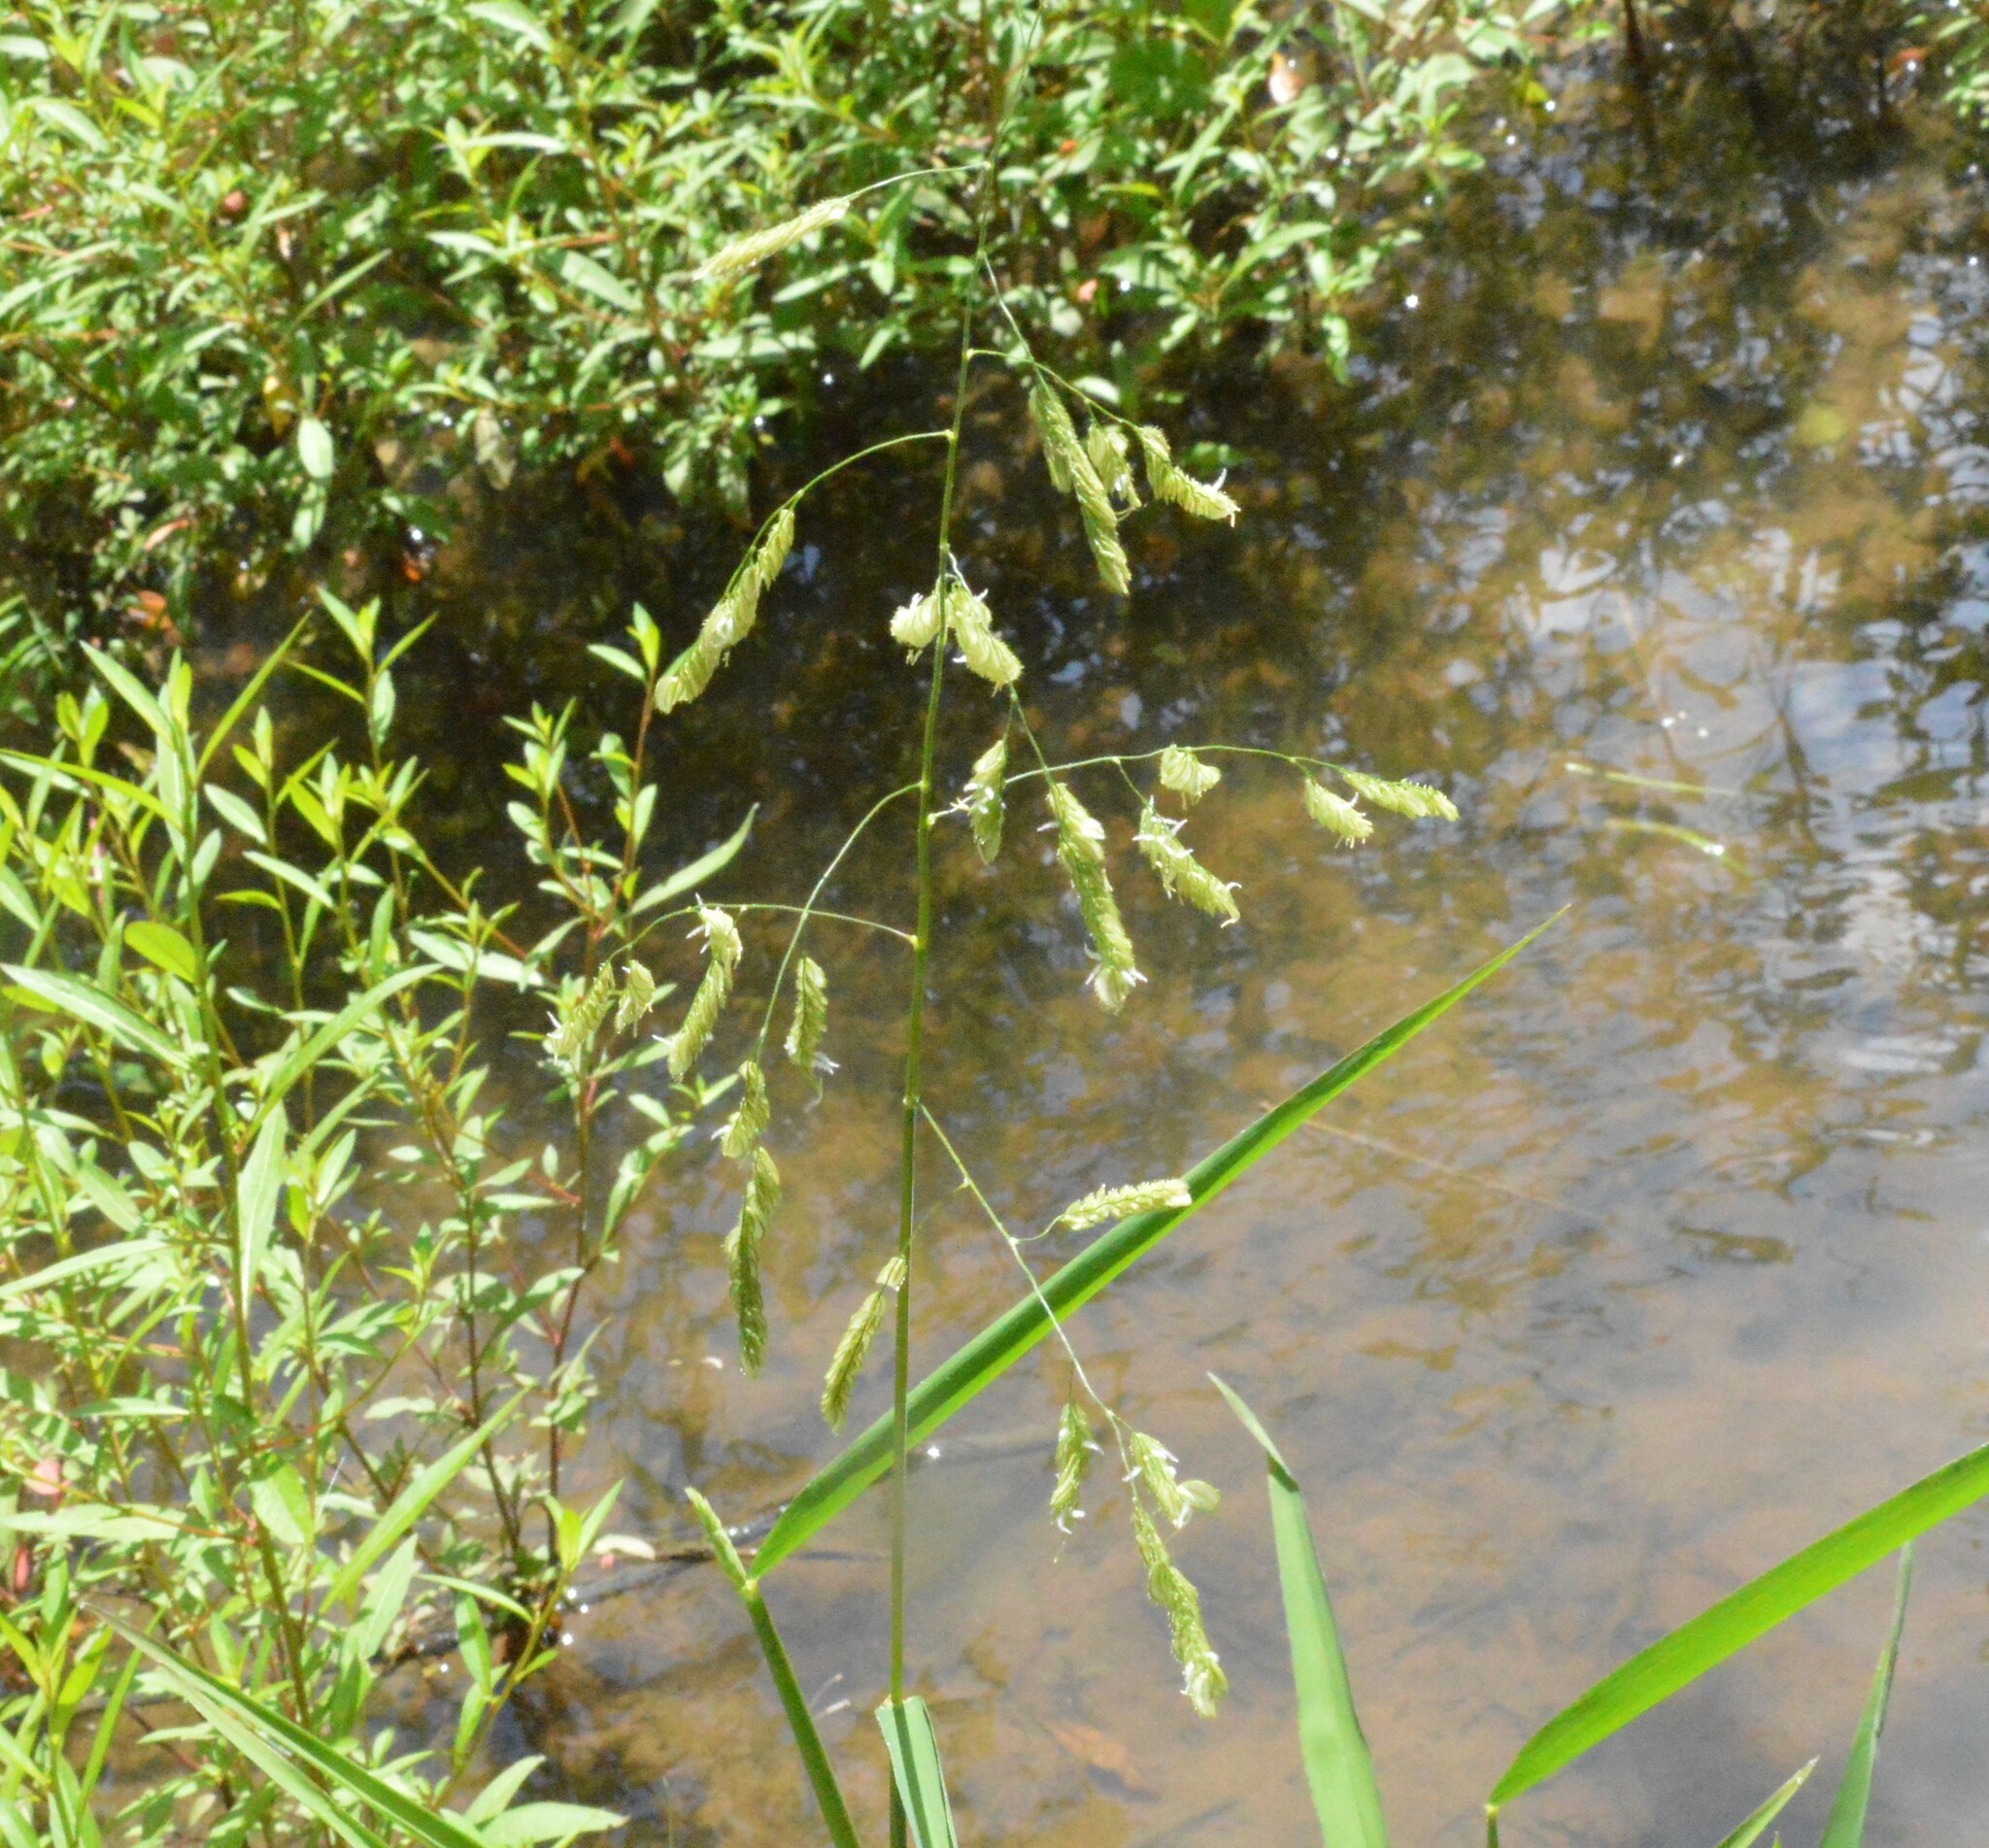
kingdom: Plantae
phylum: Tracheophyta
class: Liliopsida
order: Poales
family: Poaceae
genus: Leersia
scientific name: Leersia lenticularis
